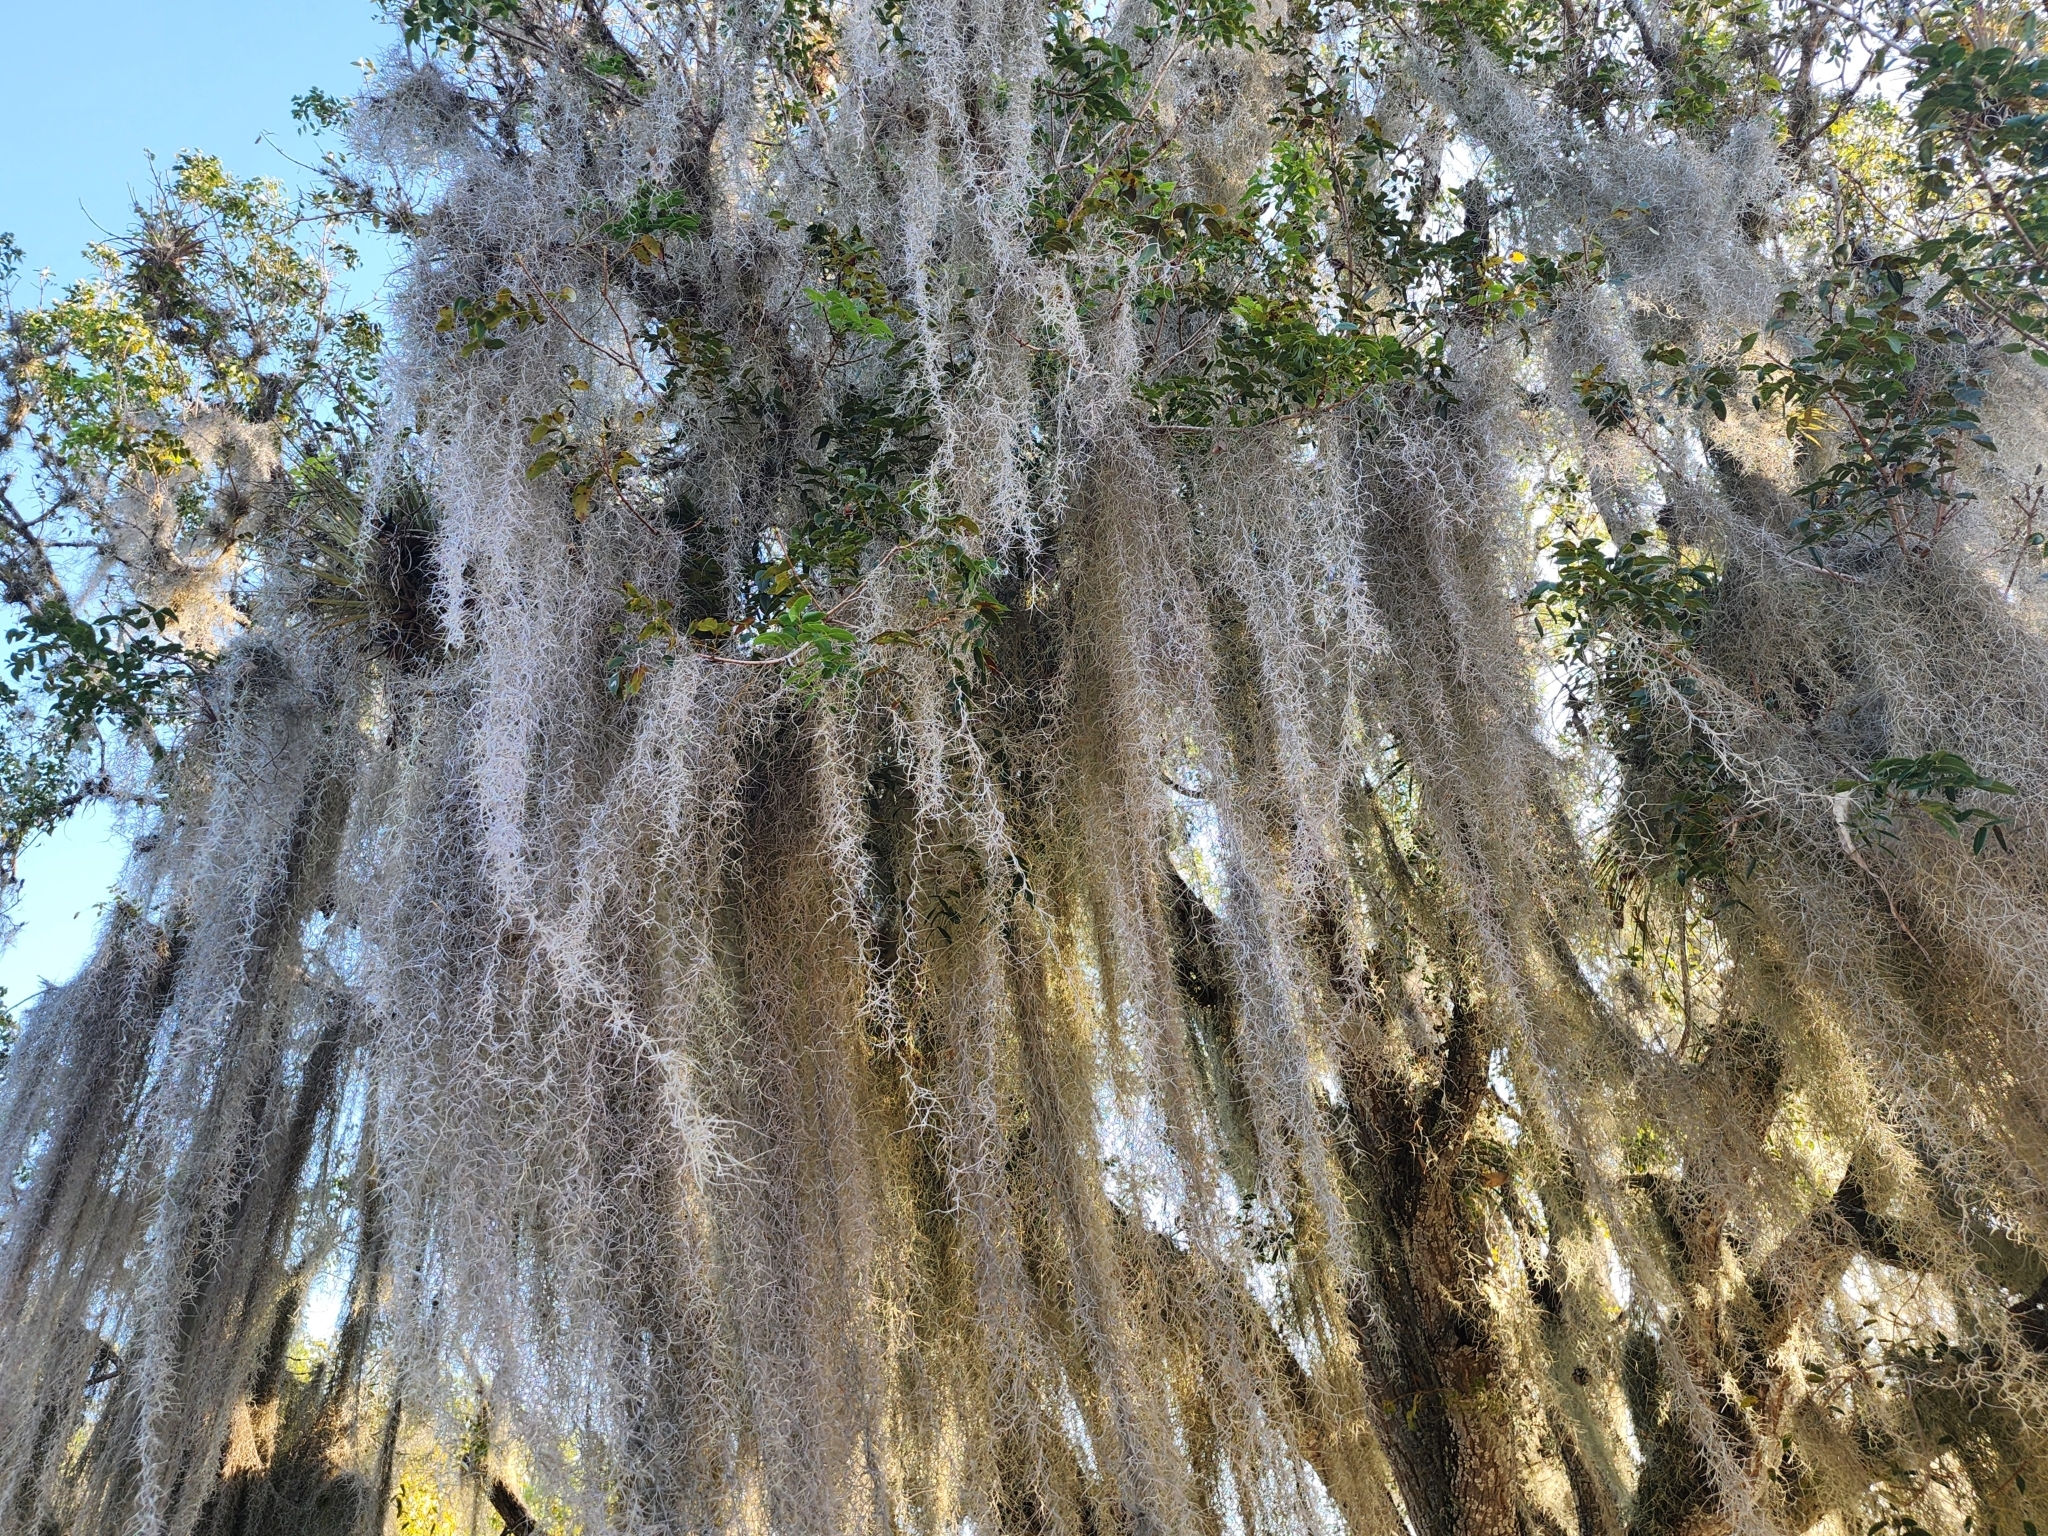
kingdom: Plantae
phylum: Tracheophyta
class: Liliopsida
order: Poales
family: Bromeliaceae
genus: Tillandsia
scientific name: Tillandsia usneoides
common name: Spanish moss
